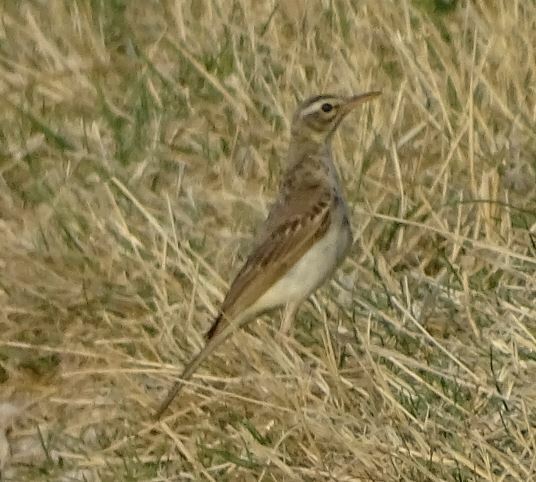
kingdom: Animalia
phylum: Chordata
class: Aves
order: Passeriformes
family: Motacillidae
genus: Anthus
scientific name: Anthus campestris
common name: Tawny pipit
